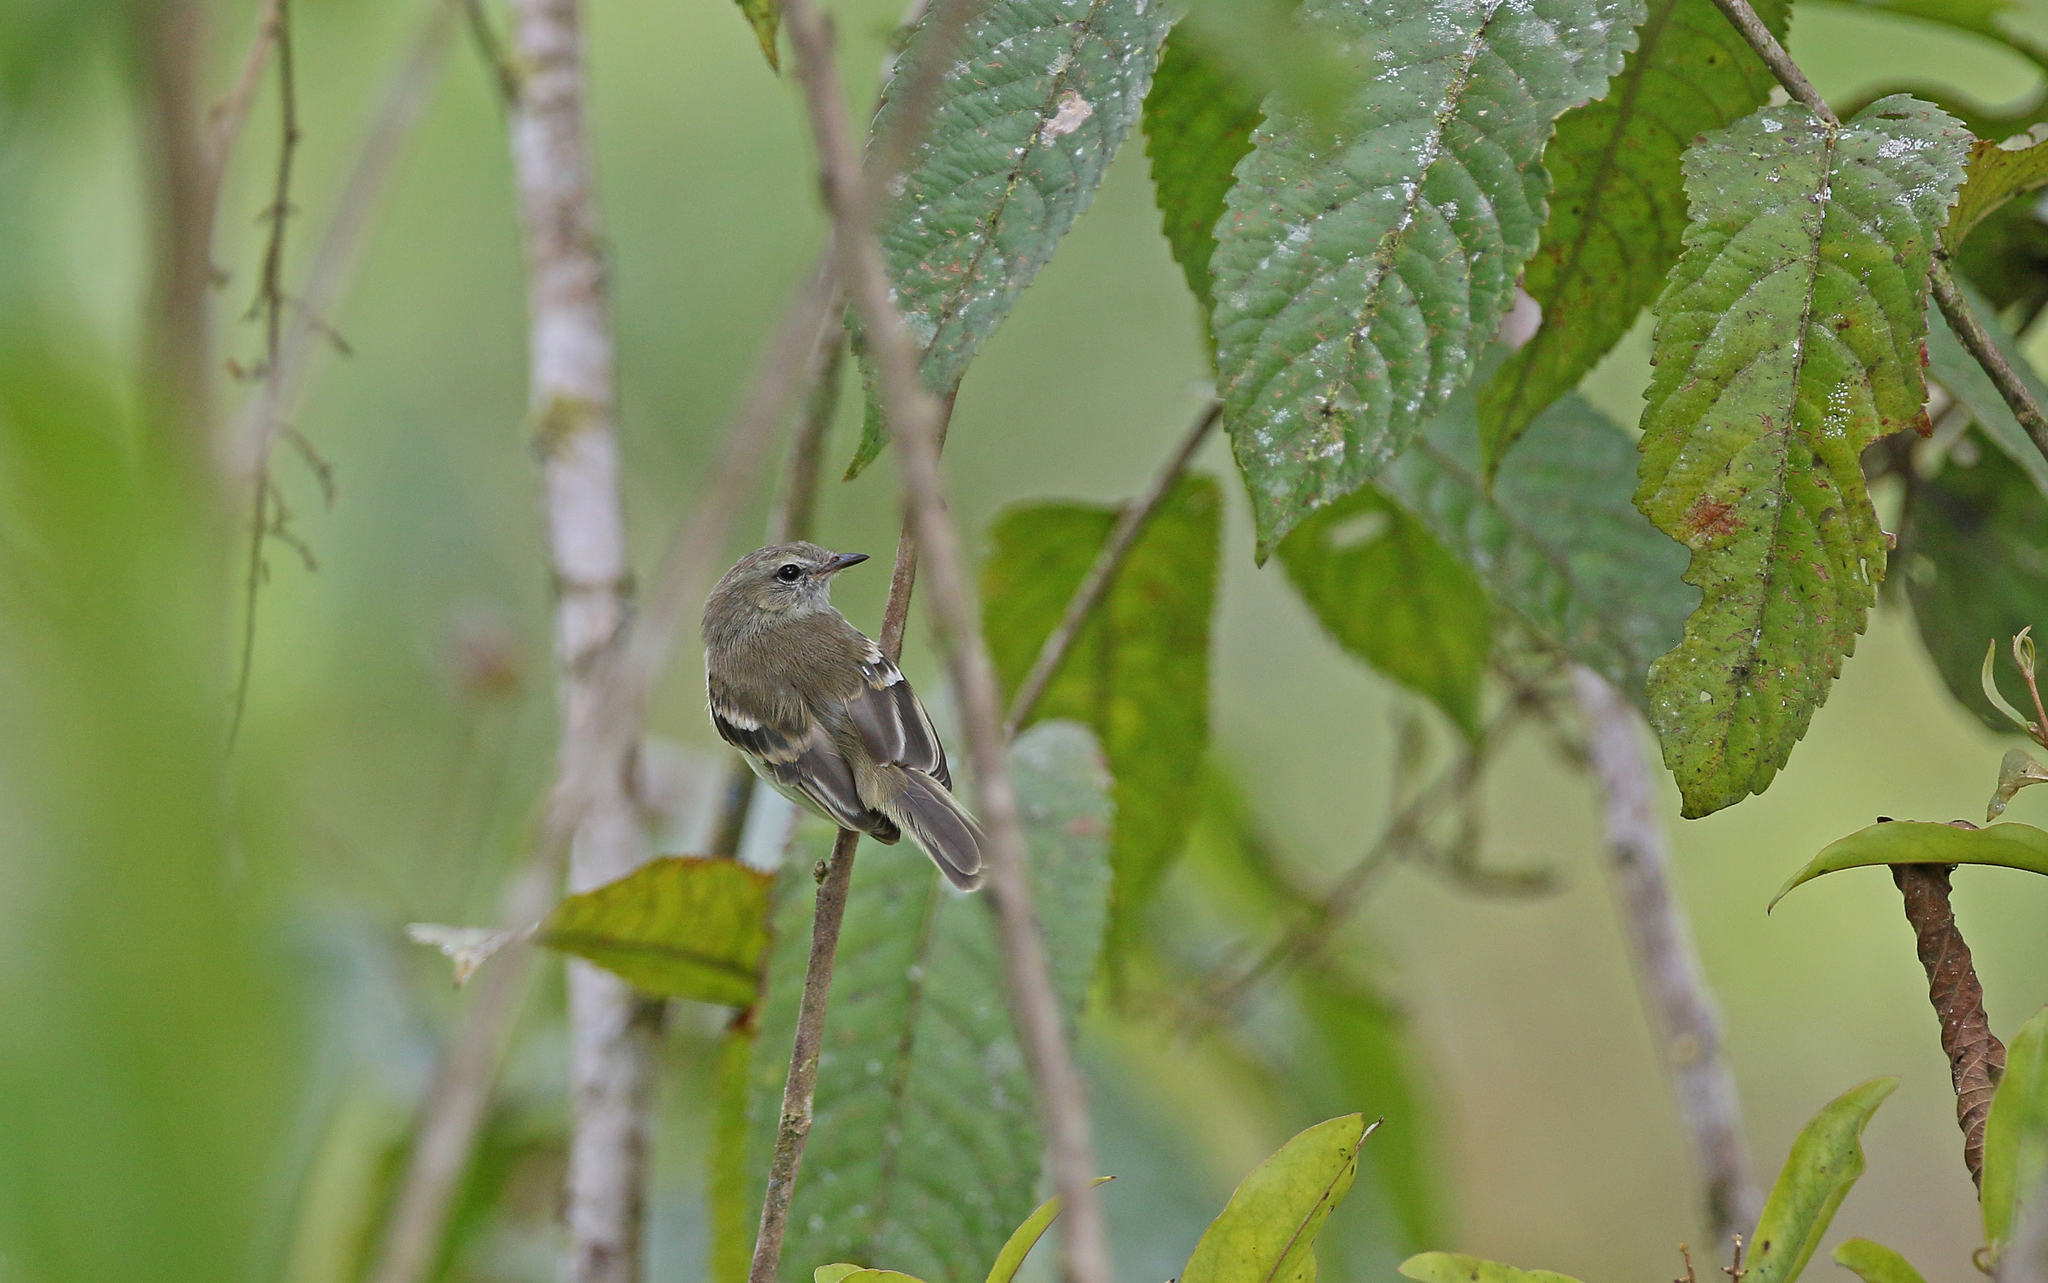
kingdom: Animalia
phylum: Chordata
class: Aves
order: Passeriformes
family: Tyrannidae
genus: Phaeomyias
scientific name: Phaeomyias murina
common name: Mouse-colored tyrannulet
